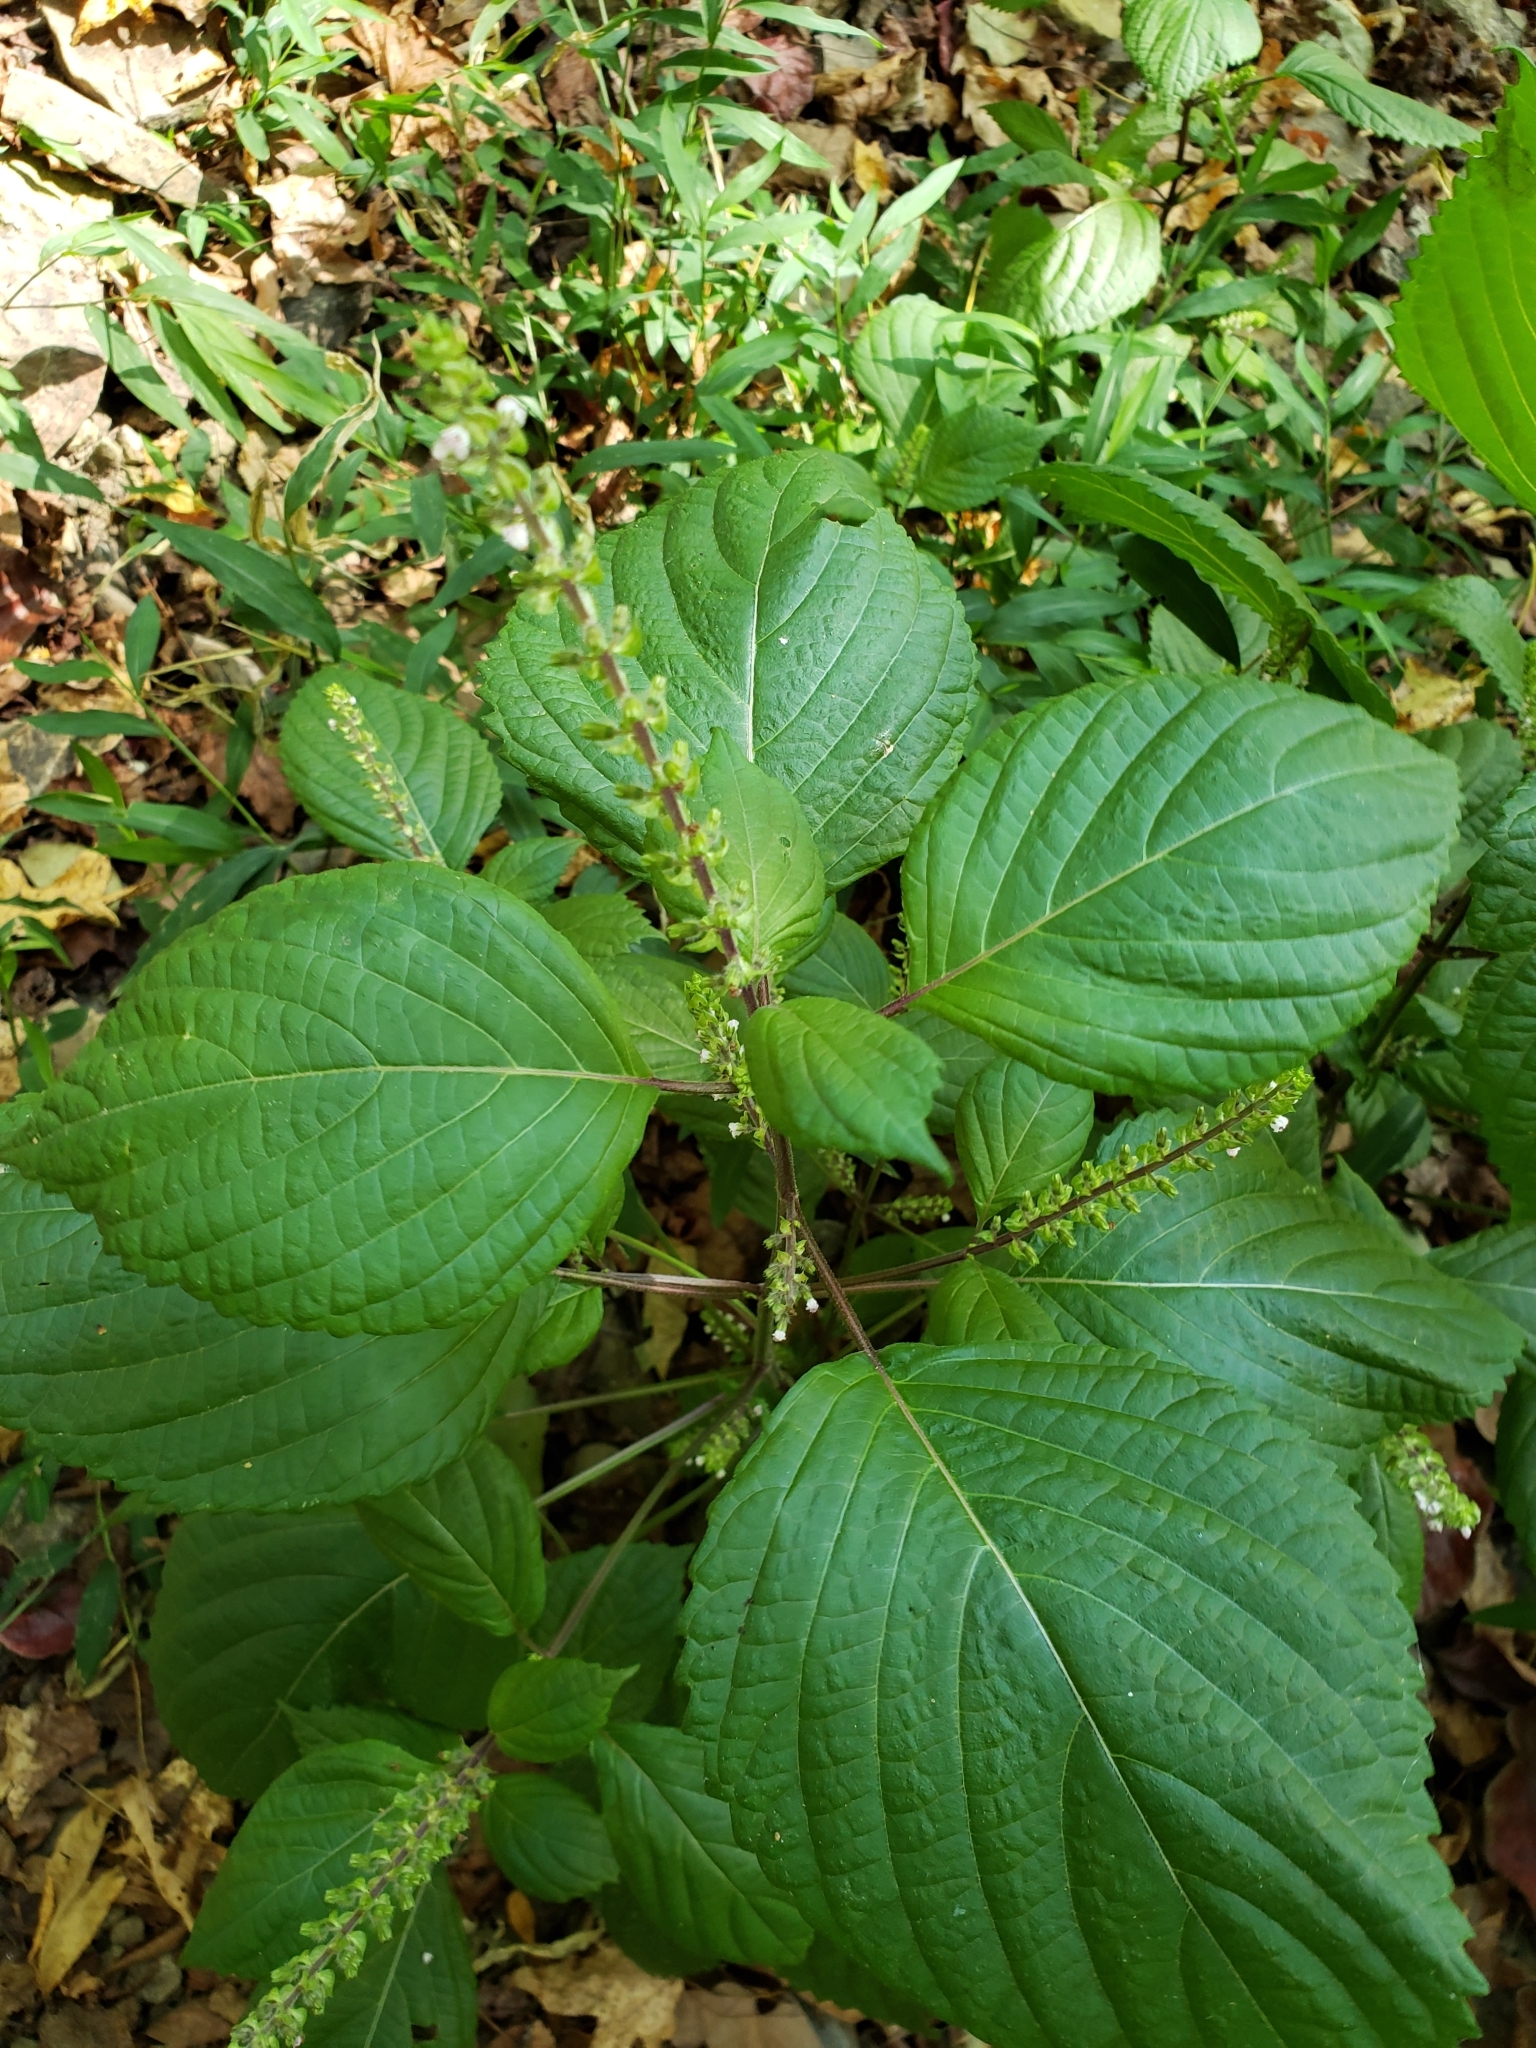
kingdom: Plantae
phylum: Tracheophyta
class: Magnoliopsida
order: Lamiales
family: Lamiaceae
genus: Perilla
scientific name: Perilla frutescens
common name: Perilla
